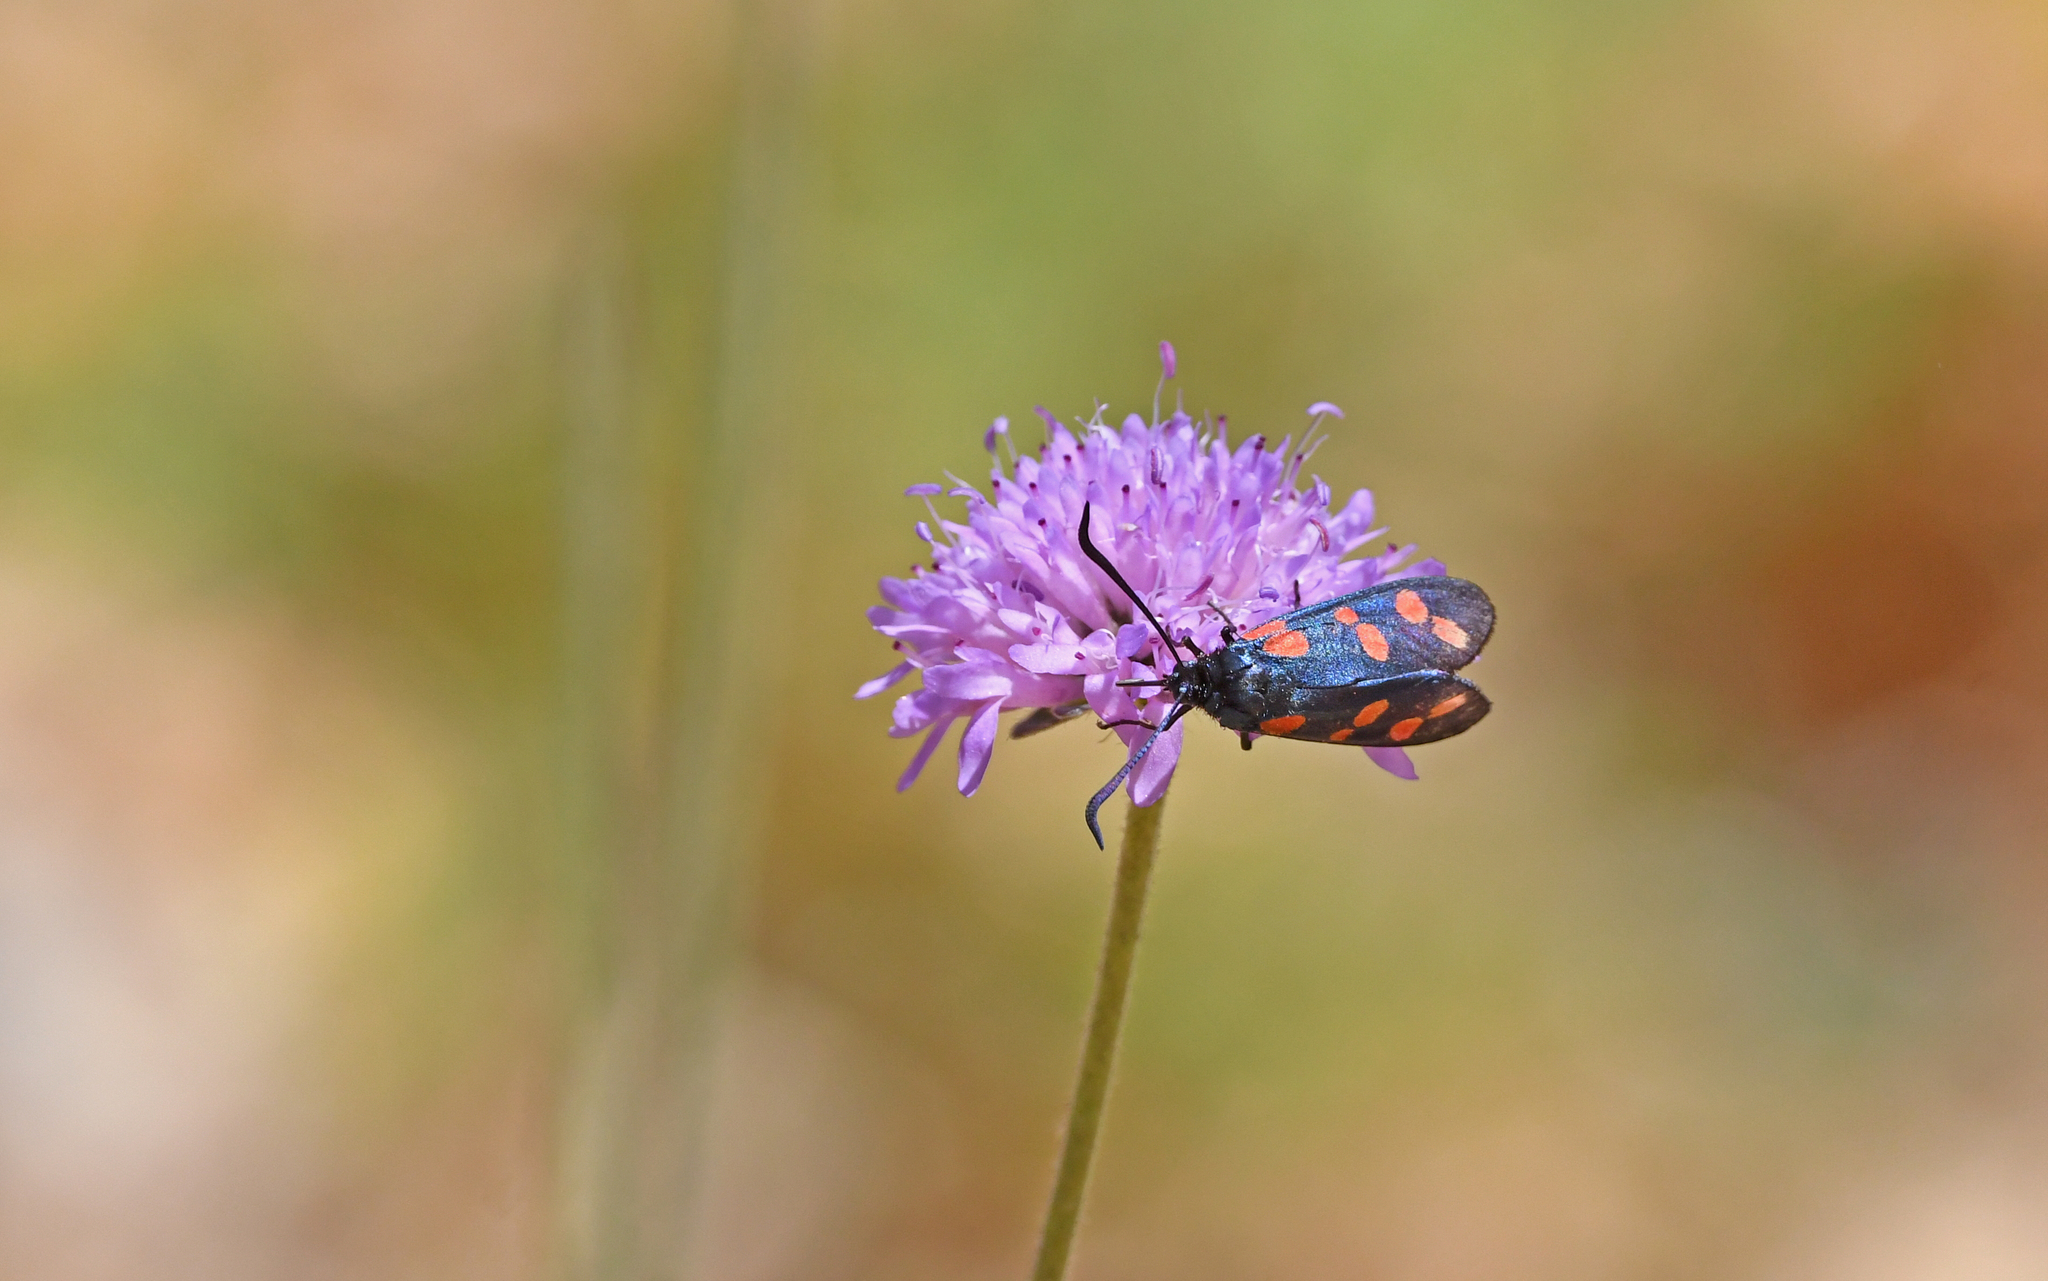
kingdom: Animalia
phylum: Arthropoda
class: Insecta
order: Lepidoptera
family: Zygaenidae
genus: Zygaena
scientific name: Zygaena filipendulae
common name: Six-spot burnet
